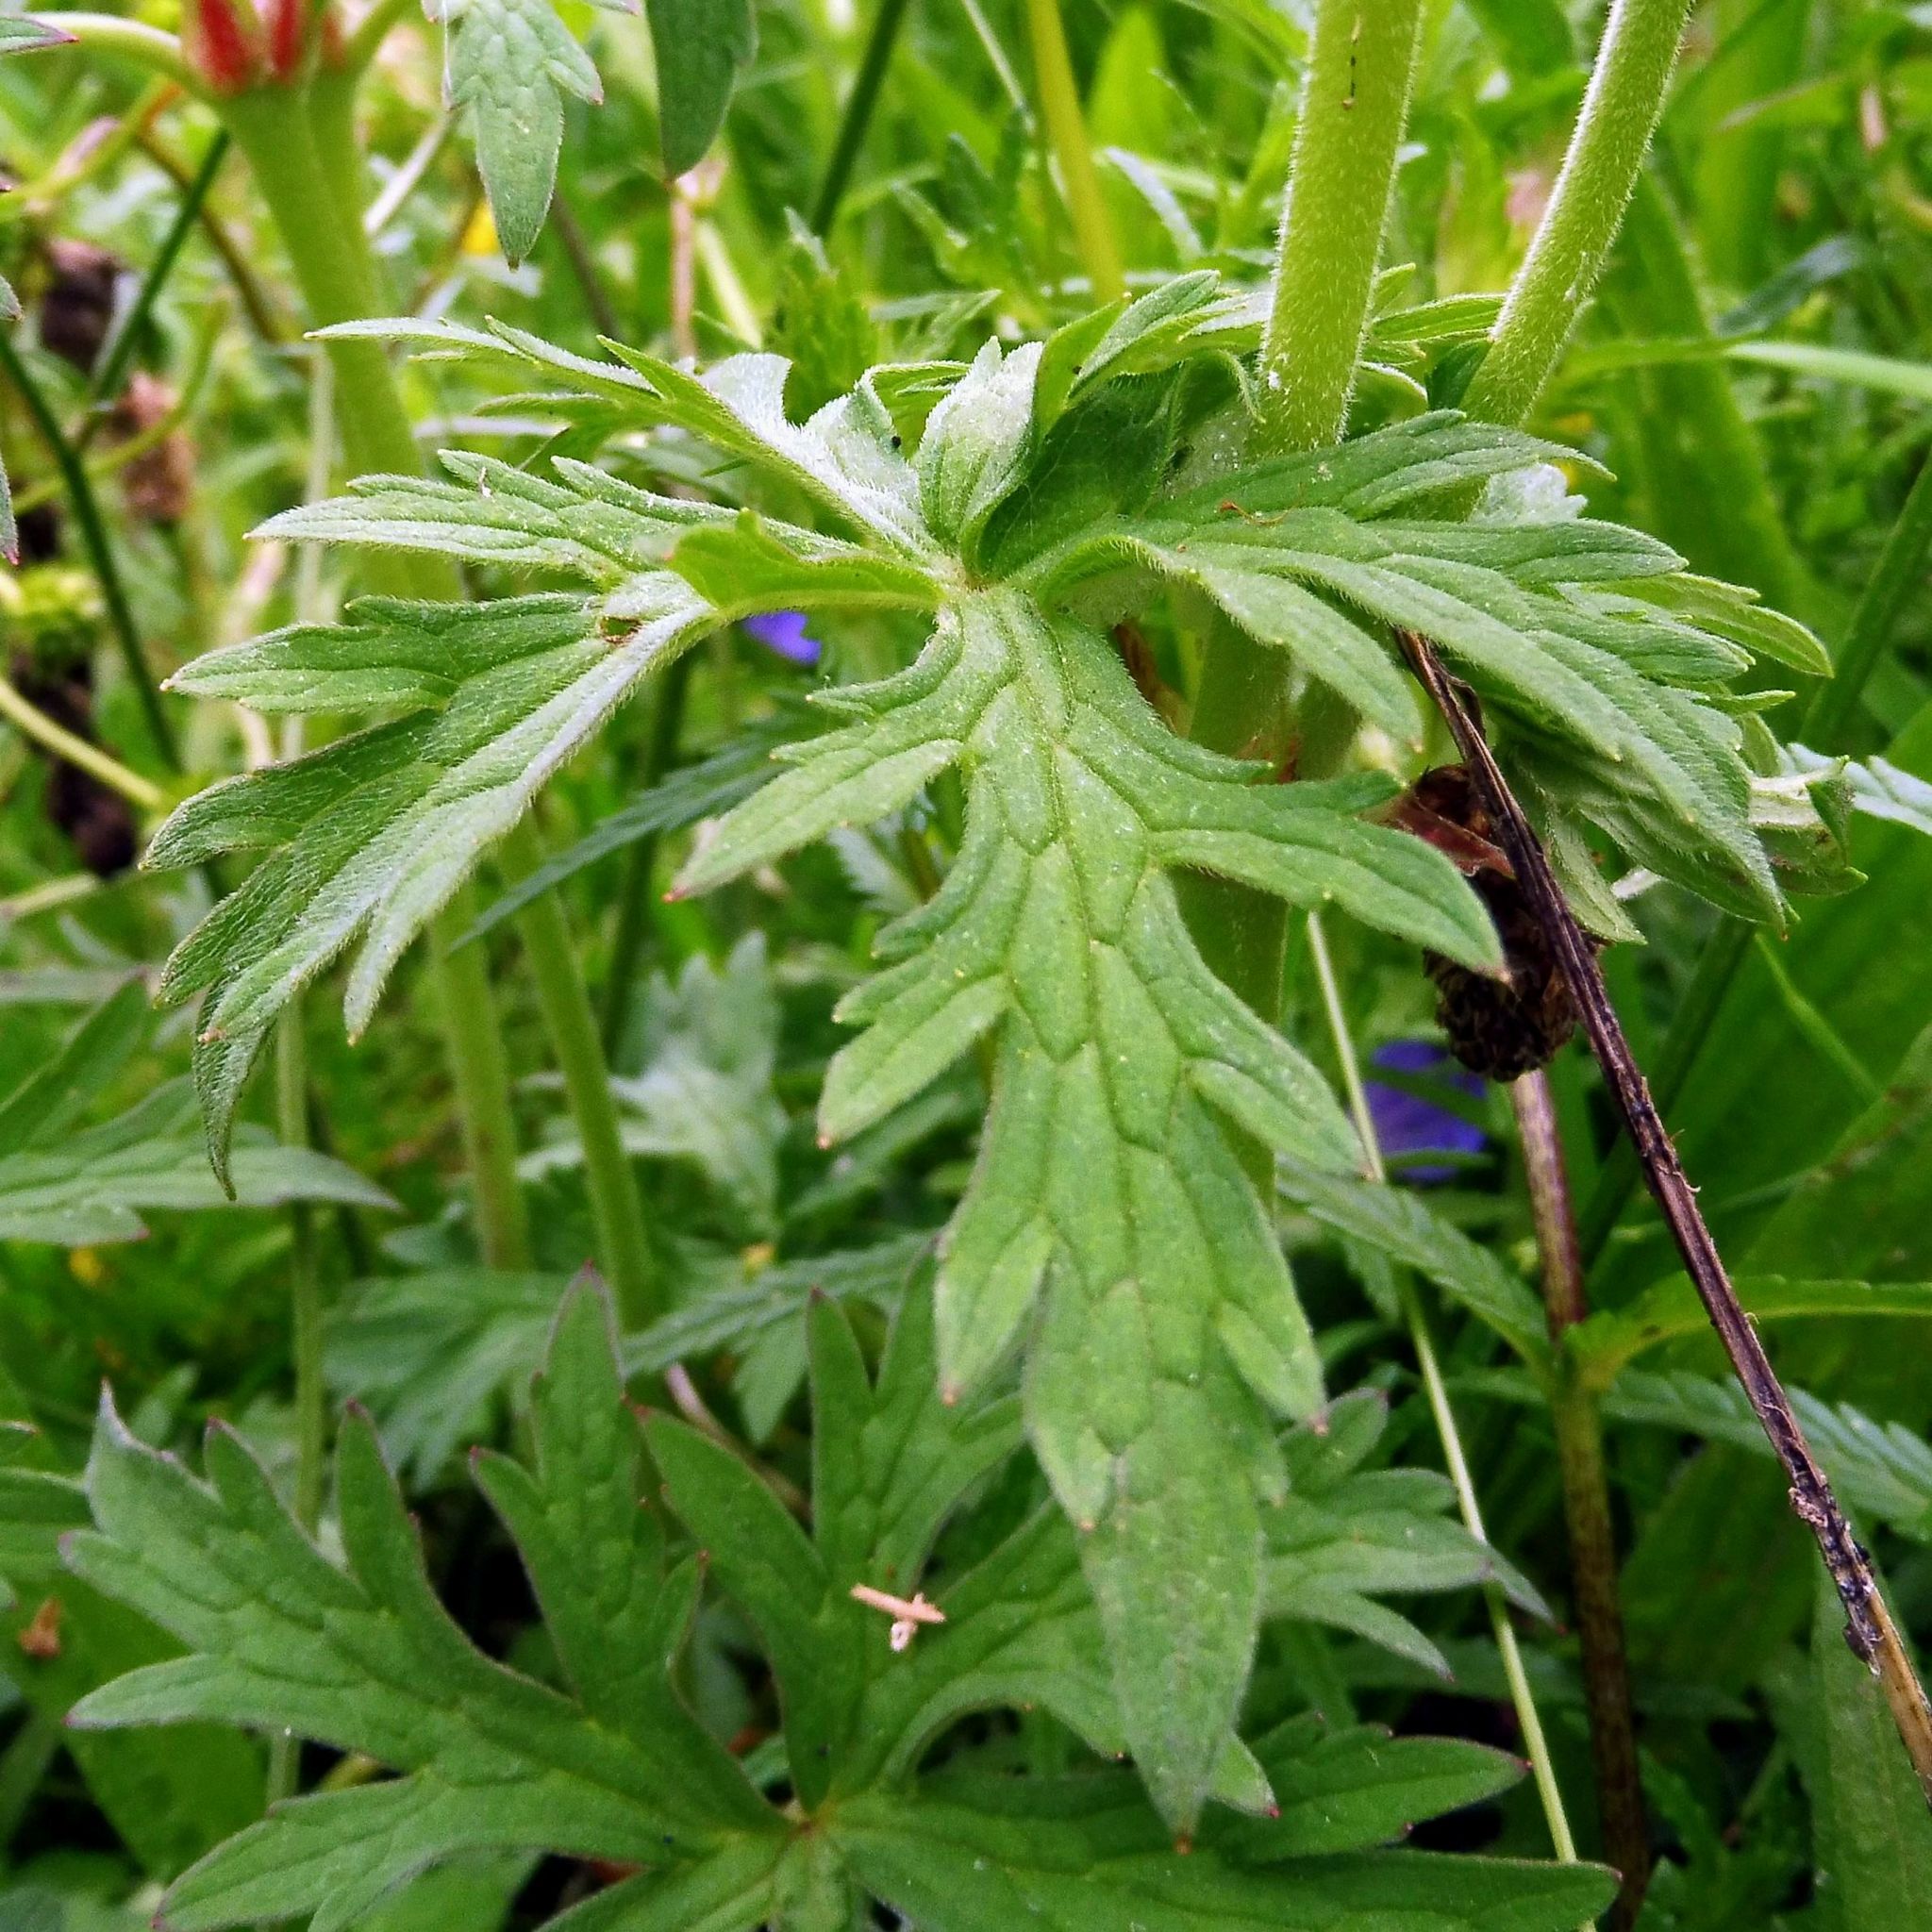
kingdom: Plantae
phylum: Tracheophyta
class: Magnoliopsida
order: Geraniales
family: Geraniaceae
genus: Geranium
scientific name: Geranium pratense
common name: Meadow crane's-bill
